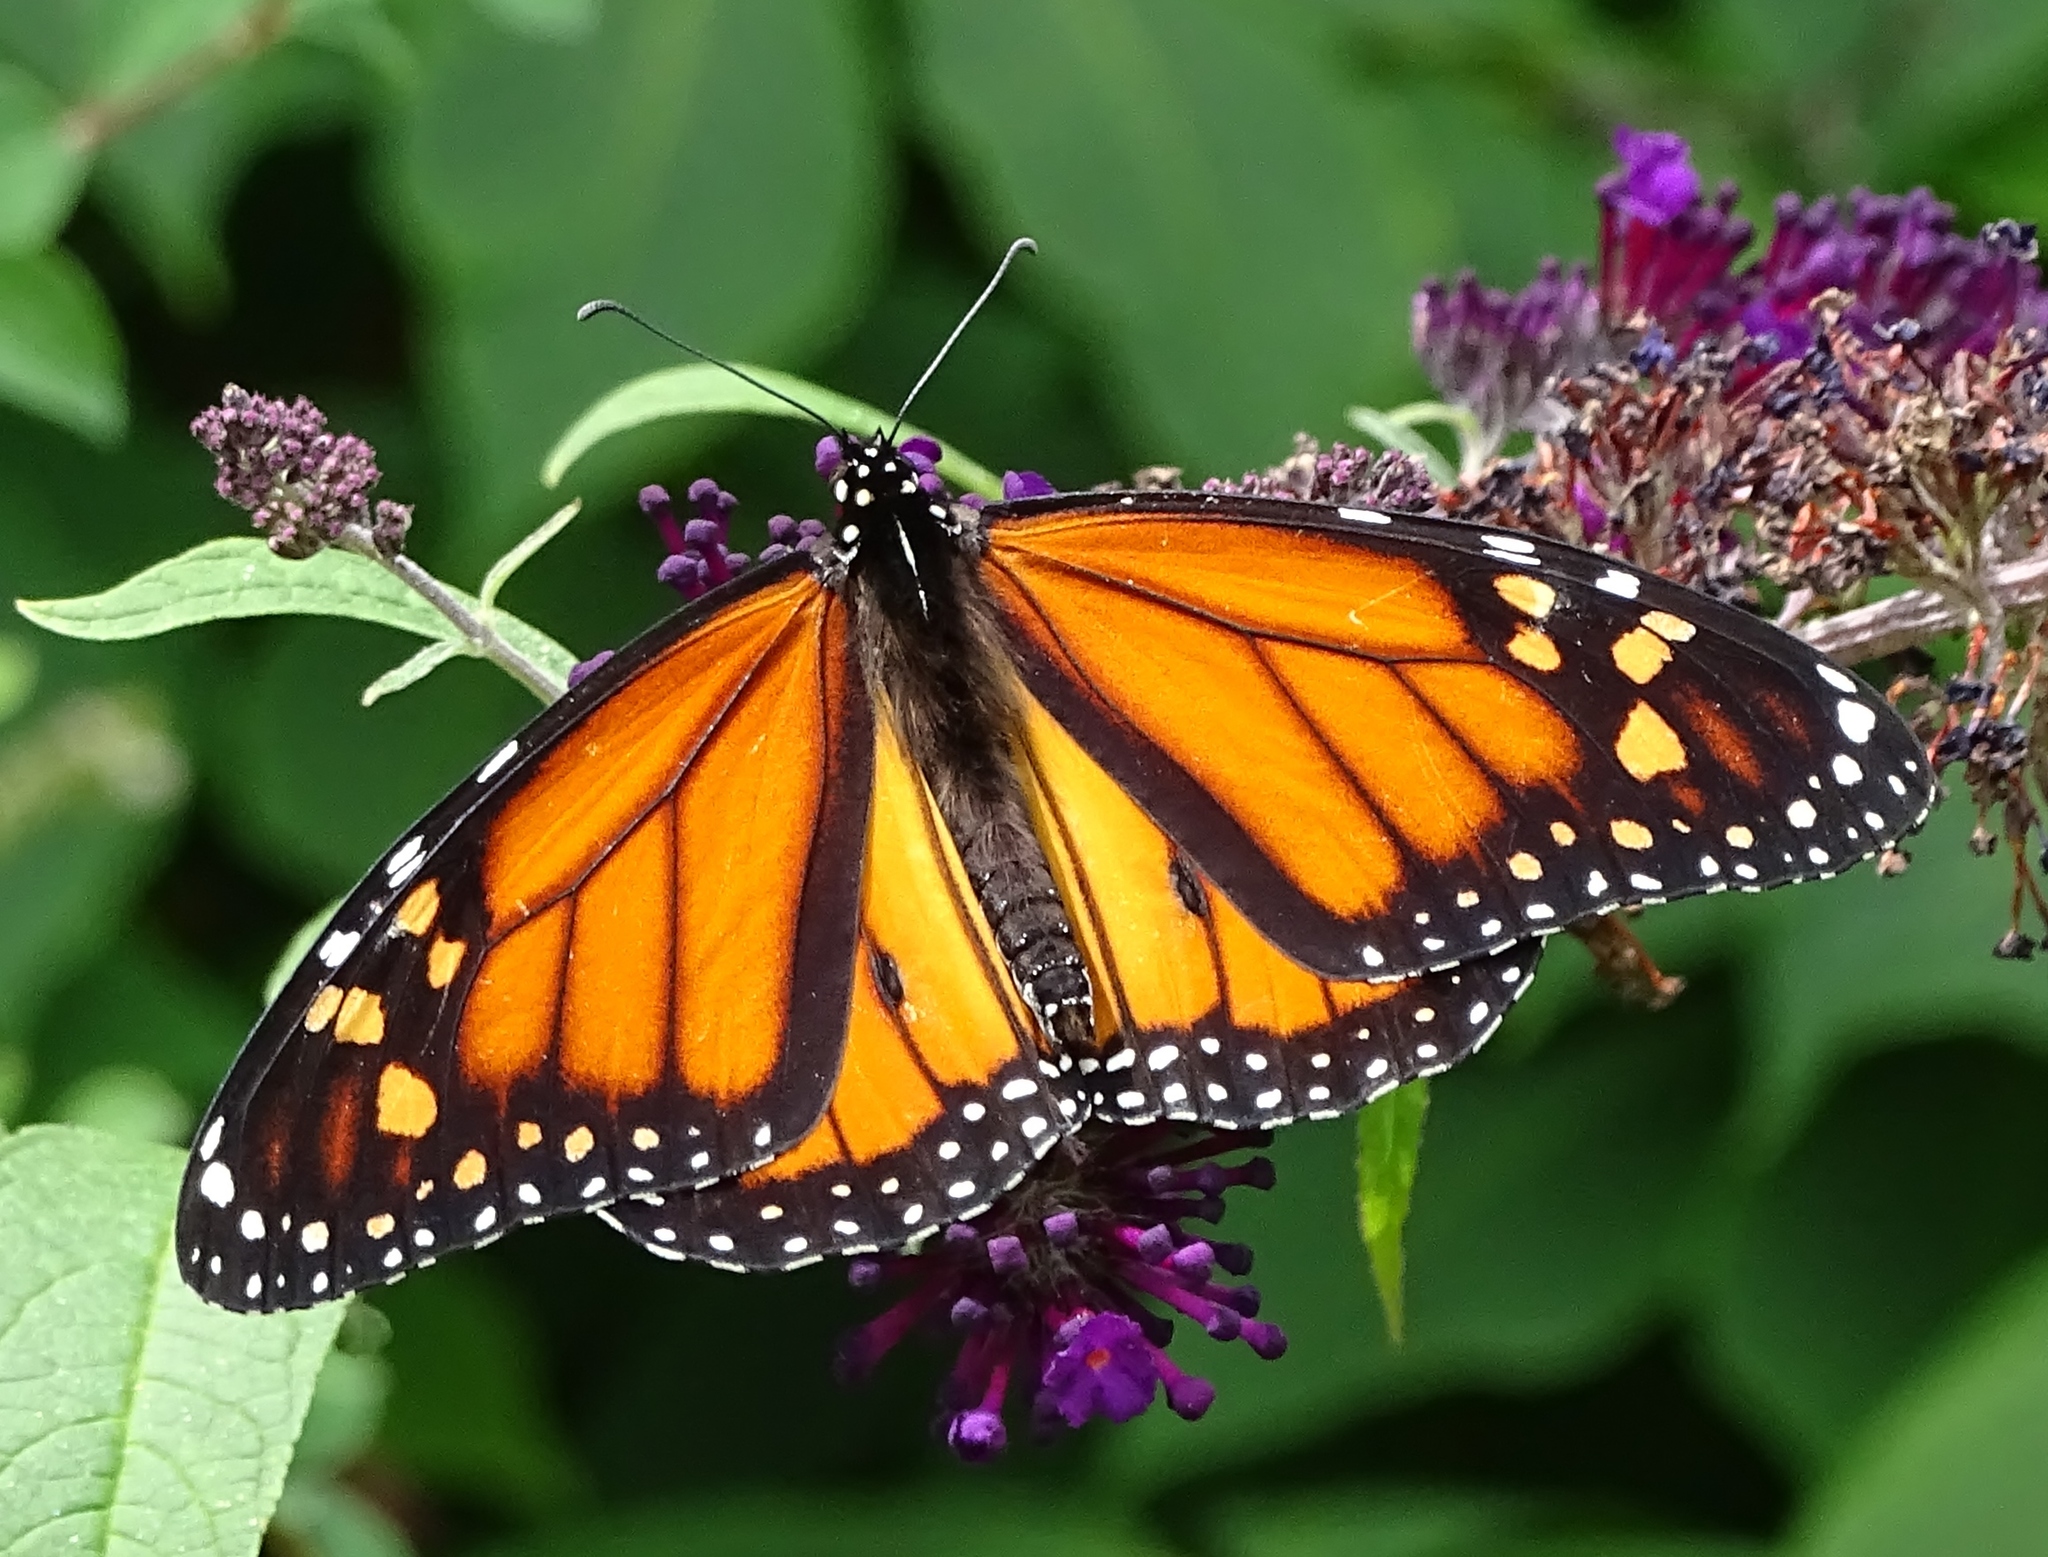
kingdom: Animalia
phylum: Arthropoda
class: Insecta
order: Lepidoptera
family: Nymphalidae
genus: Danaus
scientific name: Danaus plexippus
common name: Monarch
